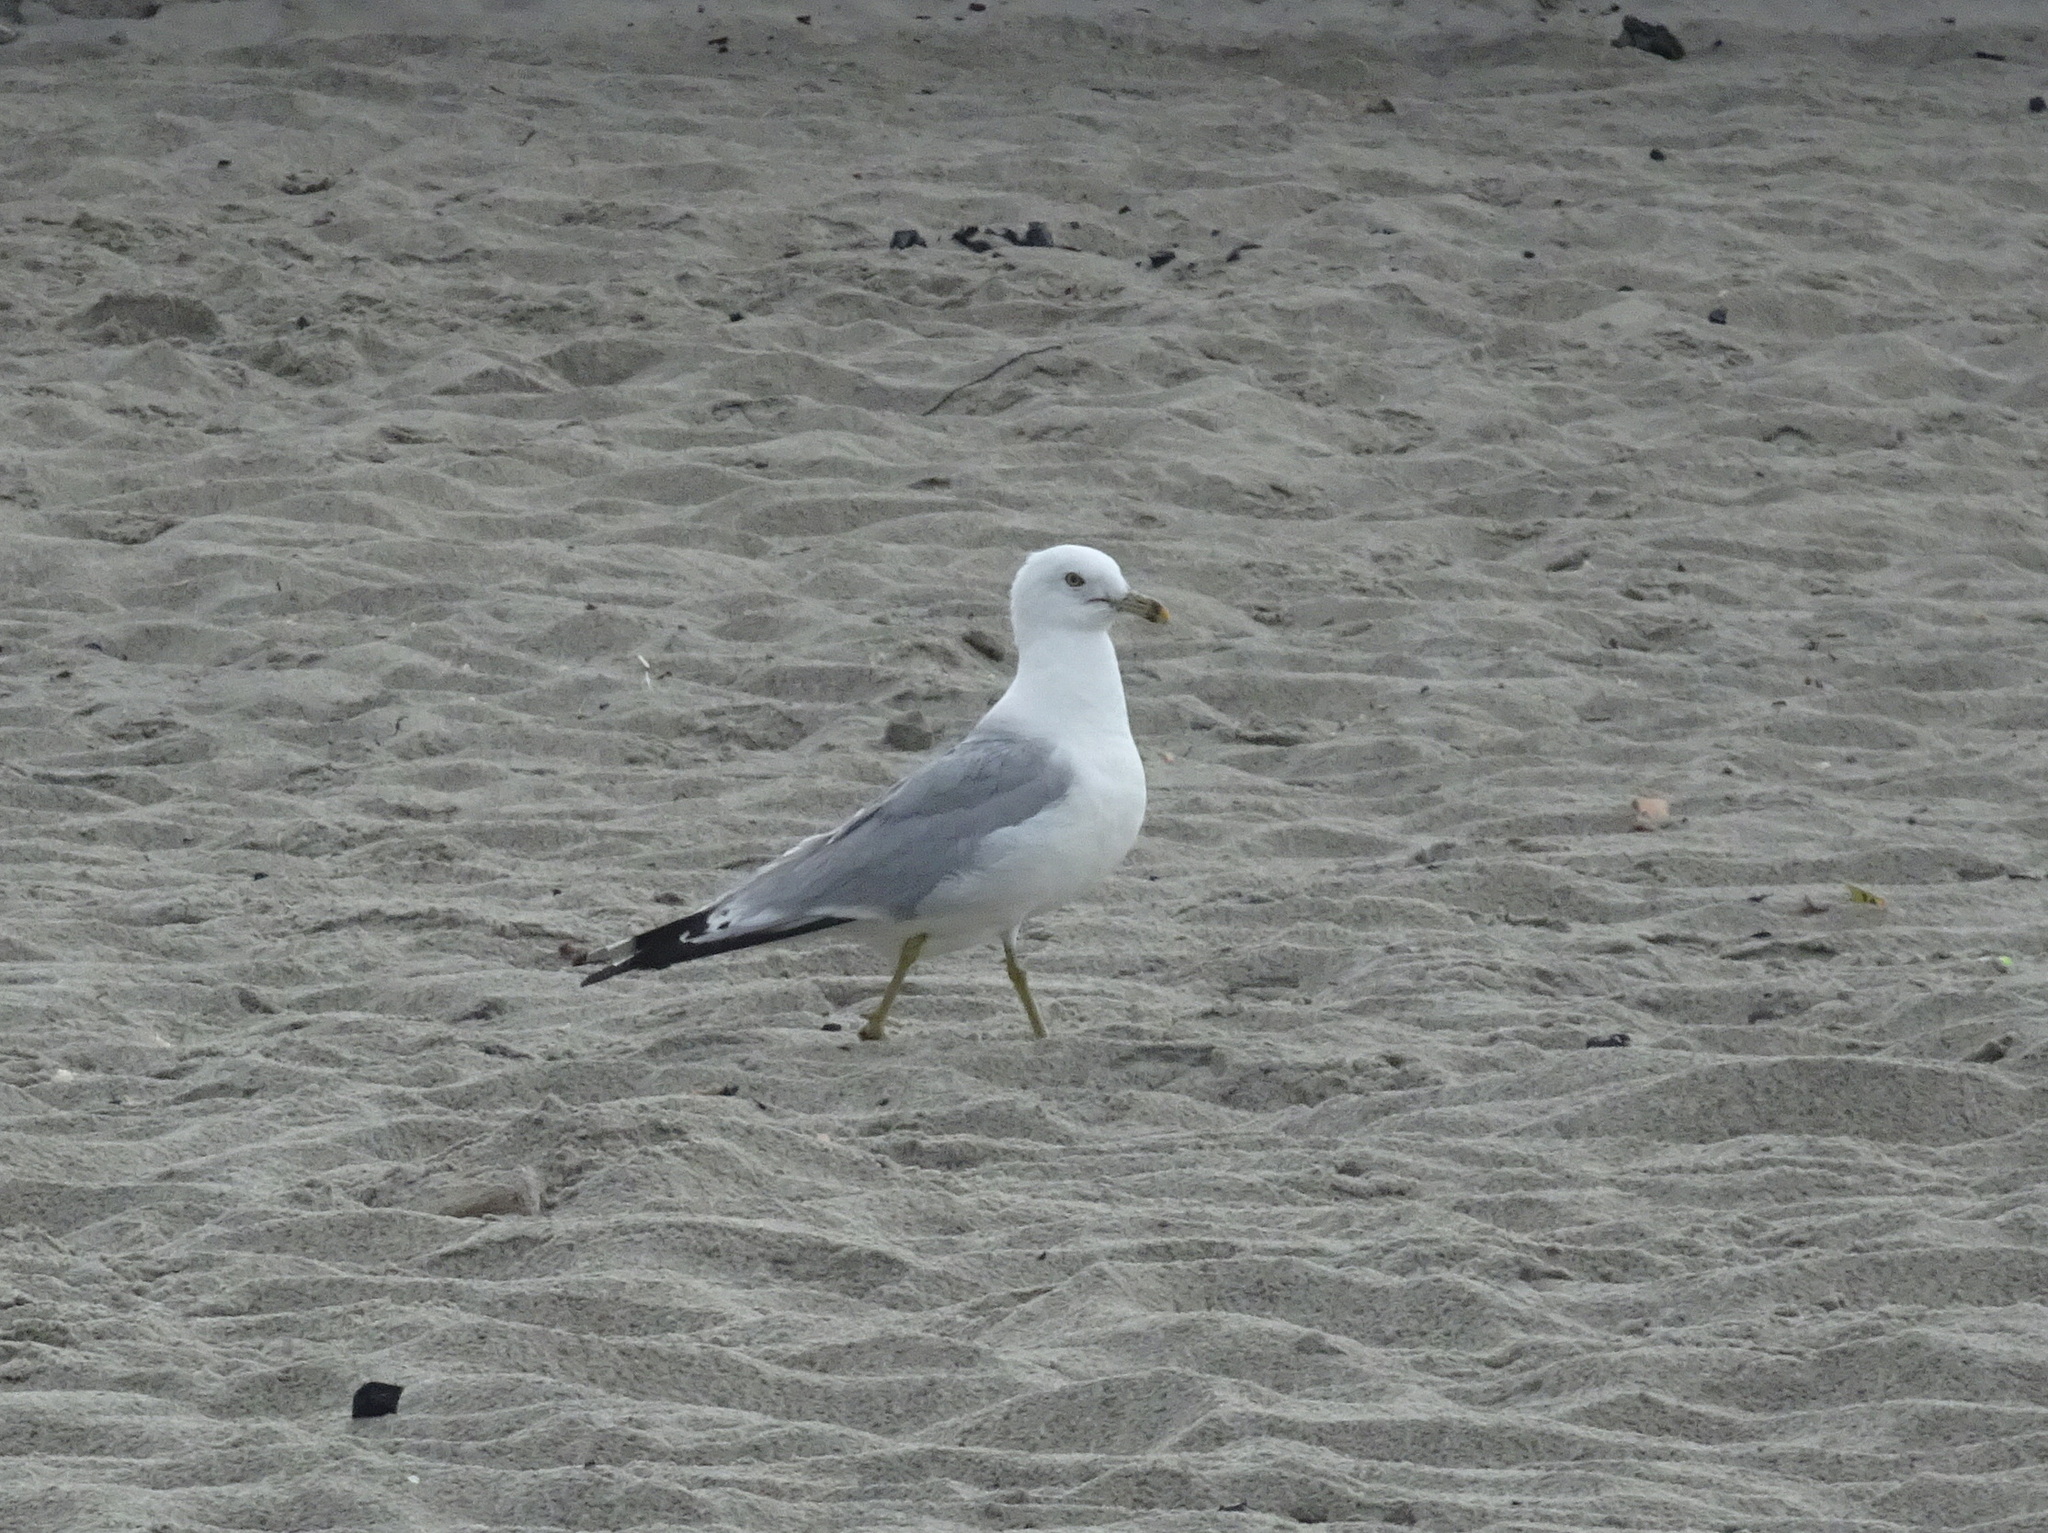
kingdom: Animalia
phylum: Chordata
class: Aves
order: Charadriiformes
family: Laridae
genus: Larus
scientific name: Larus delawarensis
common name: Ring-billed gull
